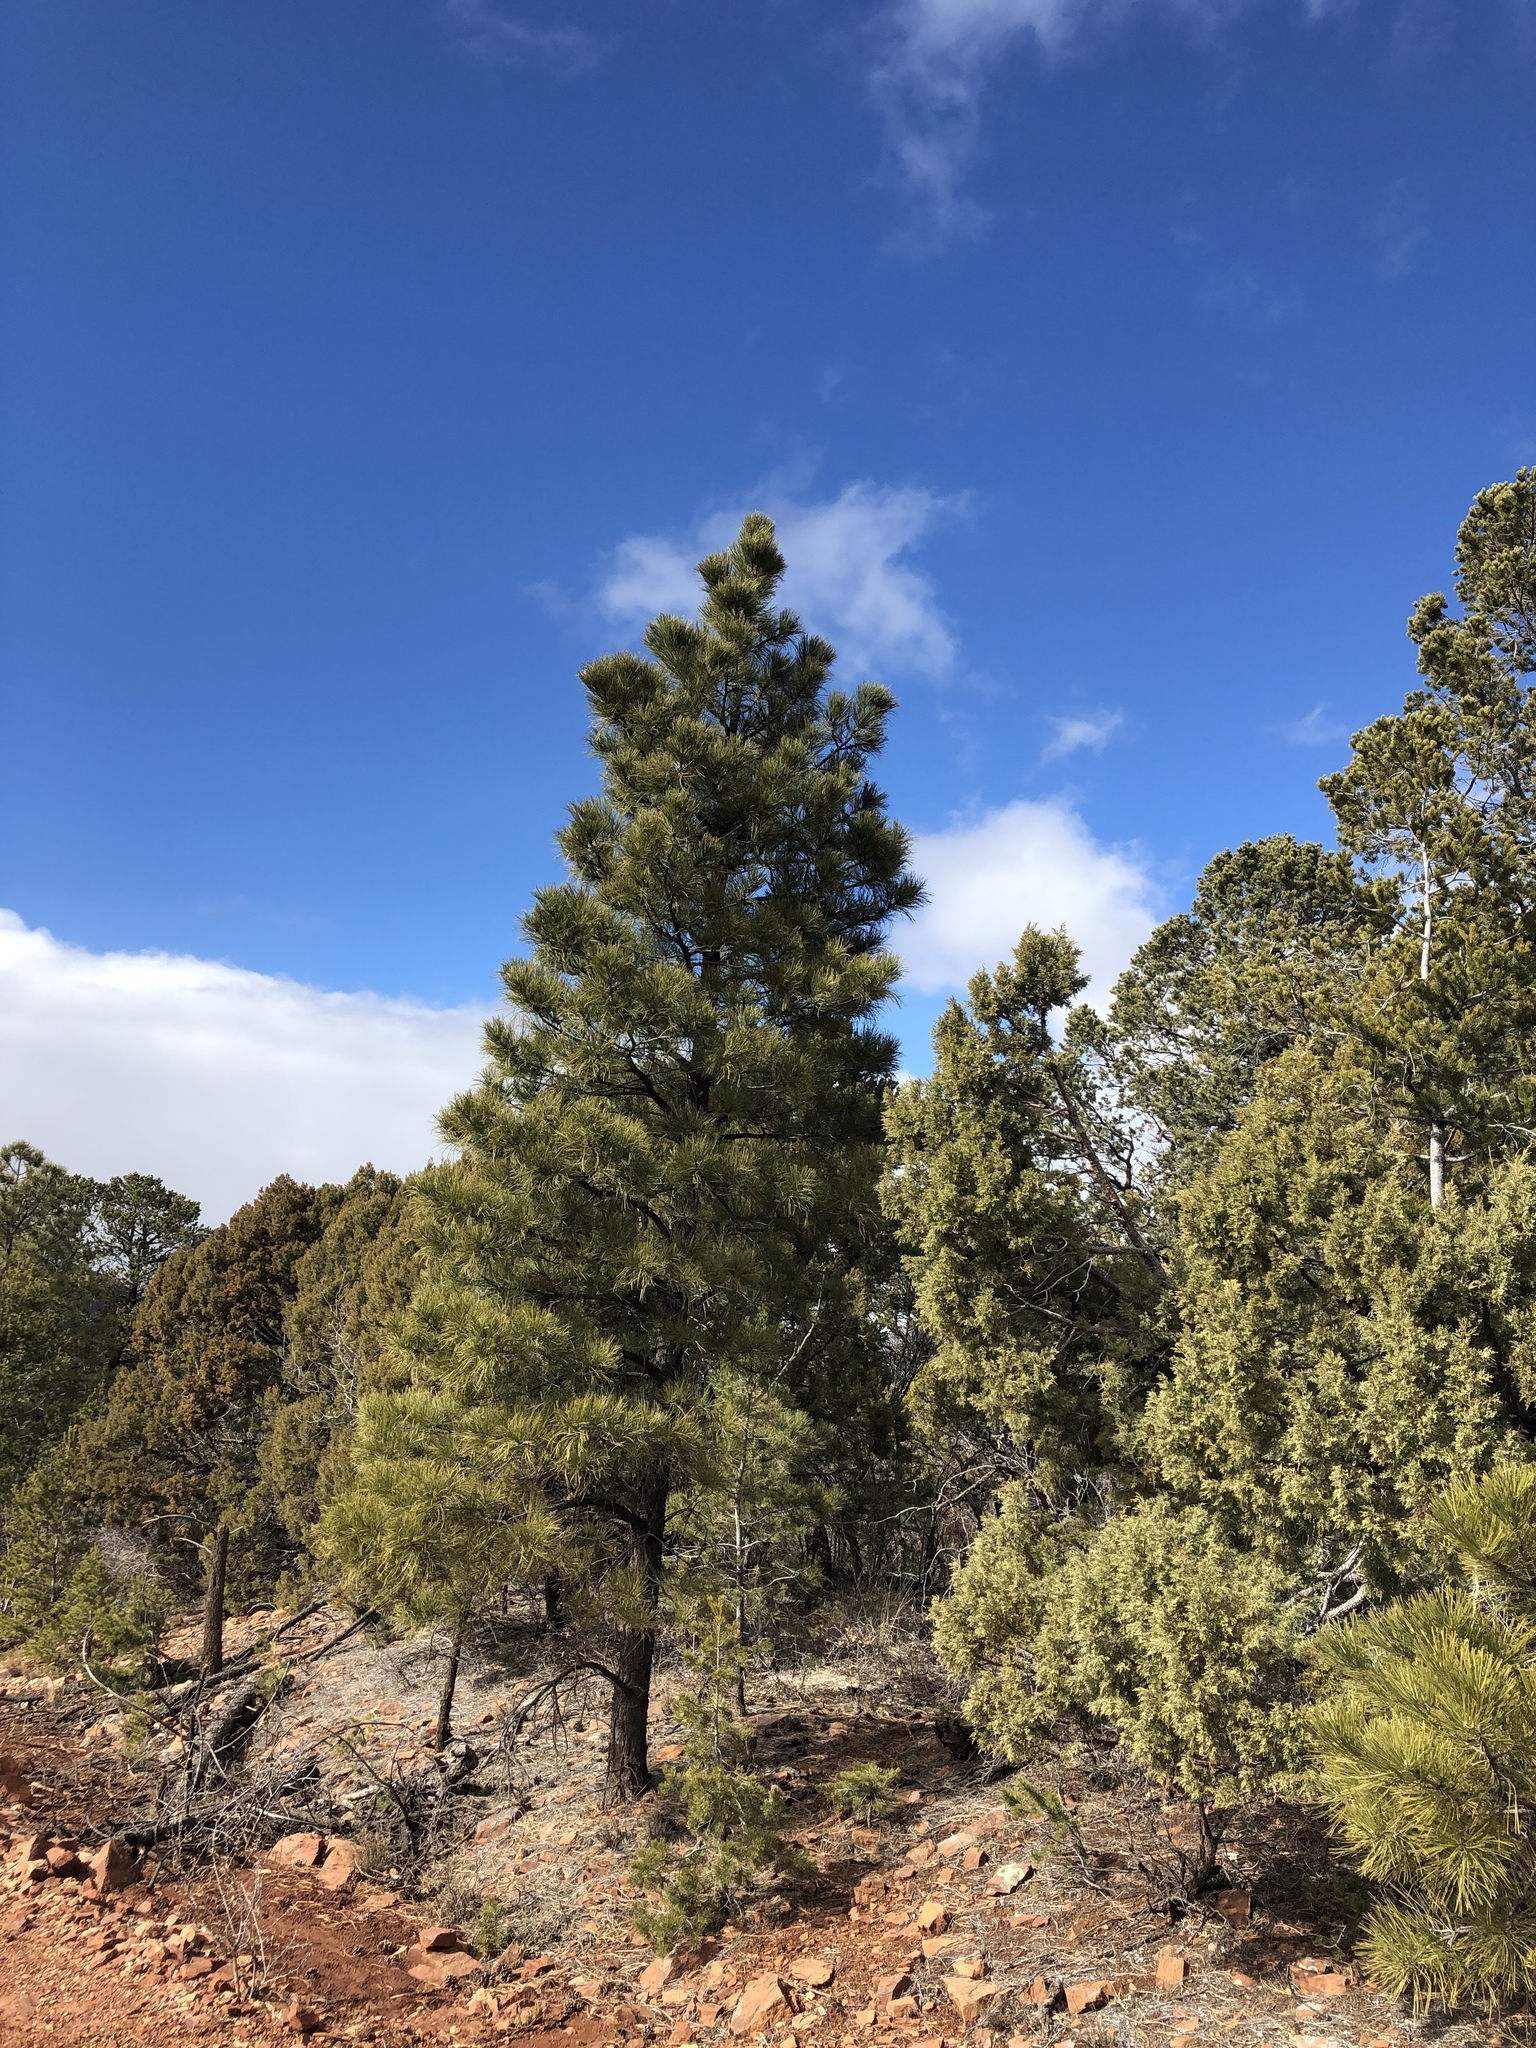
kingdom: Plantae
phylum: Tracheophyta
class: Pinopsida
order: Pinales
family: Pinaceae
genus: Pinus
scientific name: Pinus ponderosa
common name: Western yellow-pine
